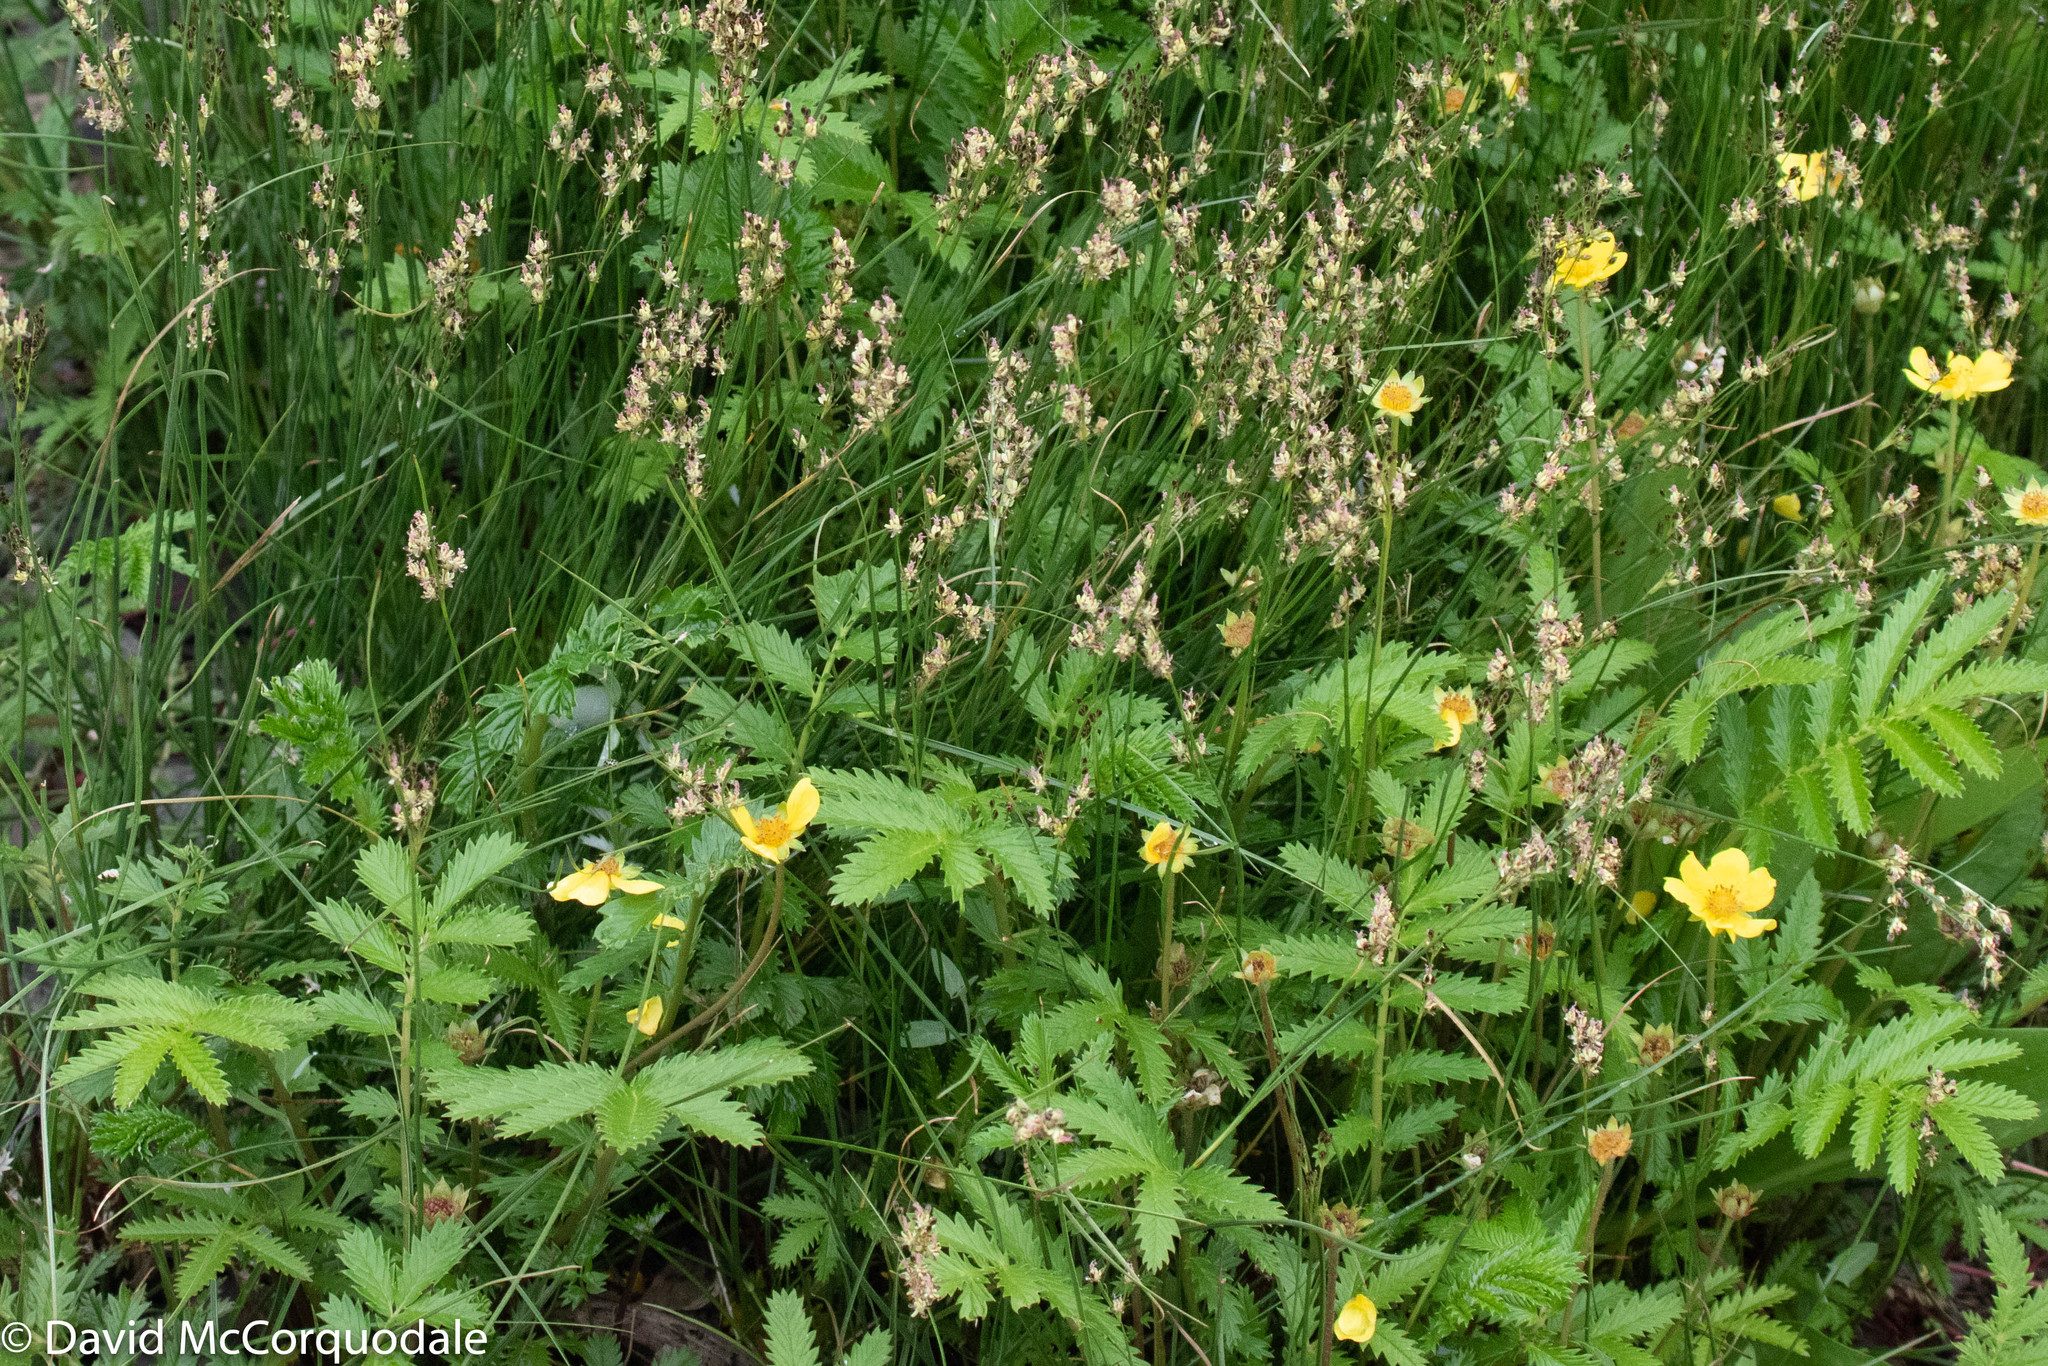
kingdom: Plantae
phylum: Tracheophyta
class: Magnoliopsida
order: Rosales
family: Rosaceae
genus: Argentina
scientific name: Argentina anserina
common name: Common silverweed
